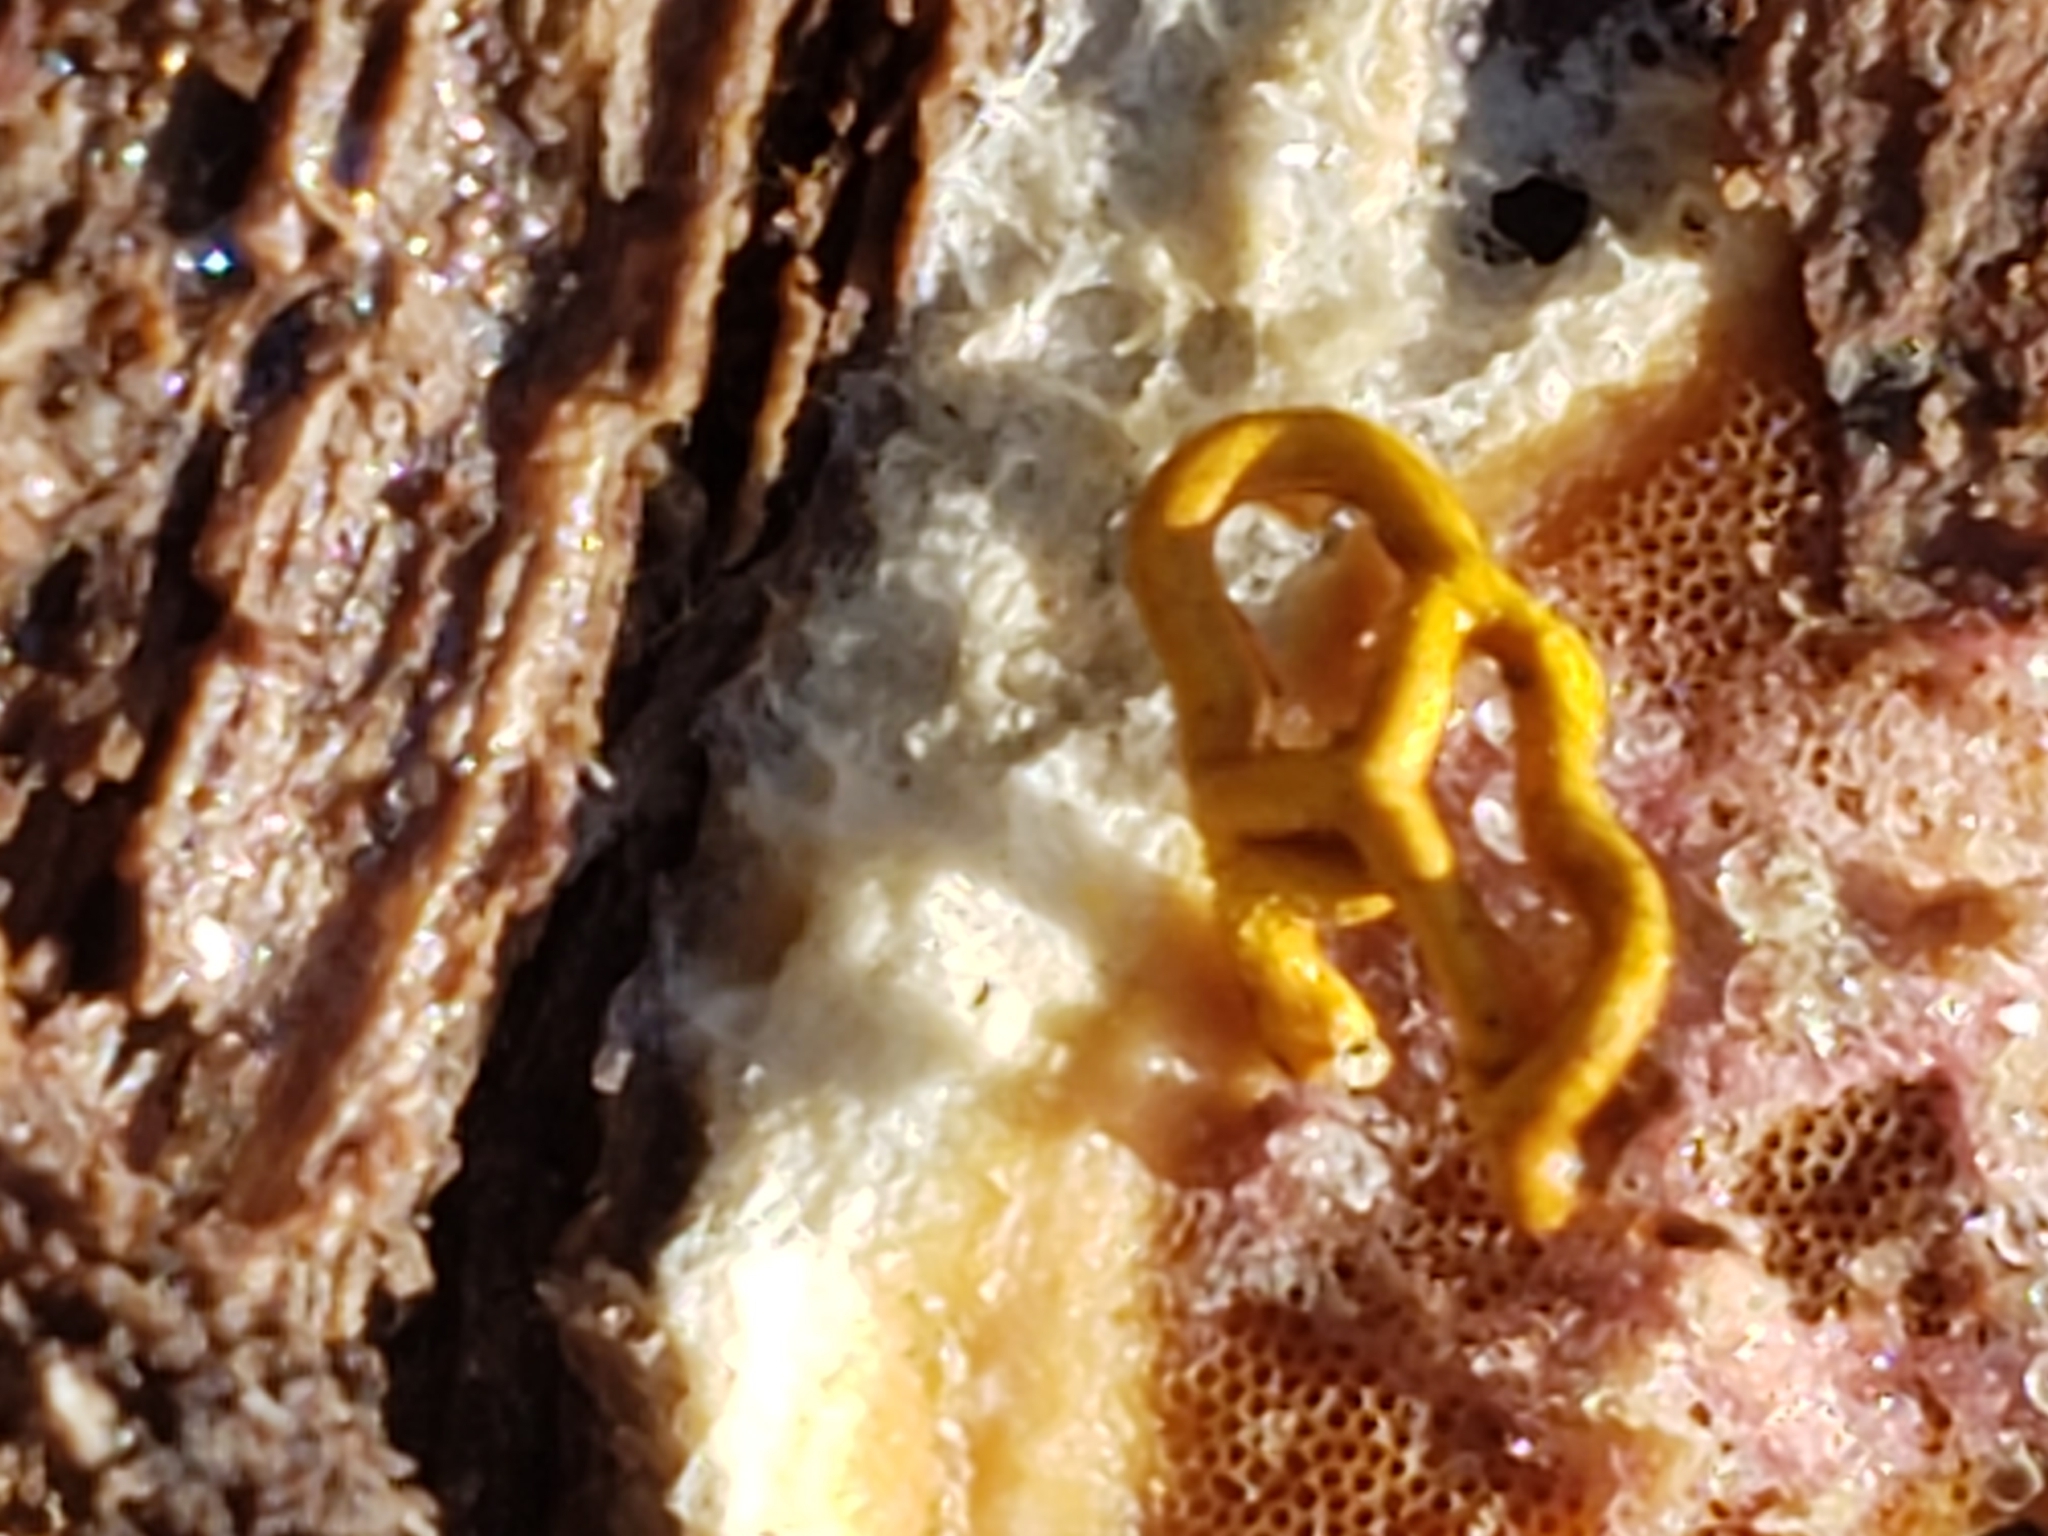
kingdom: Protozoa
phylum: Mycetozoa
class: Myxomycetes
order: Trichiales
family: Arcyriaceae
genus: Hemitrichia
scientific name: Hemitrichia serpula
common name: Pretzel slime mold
